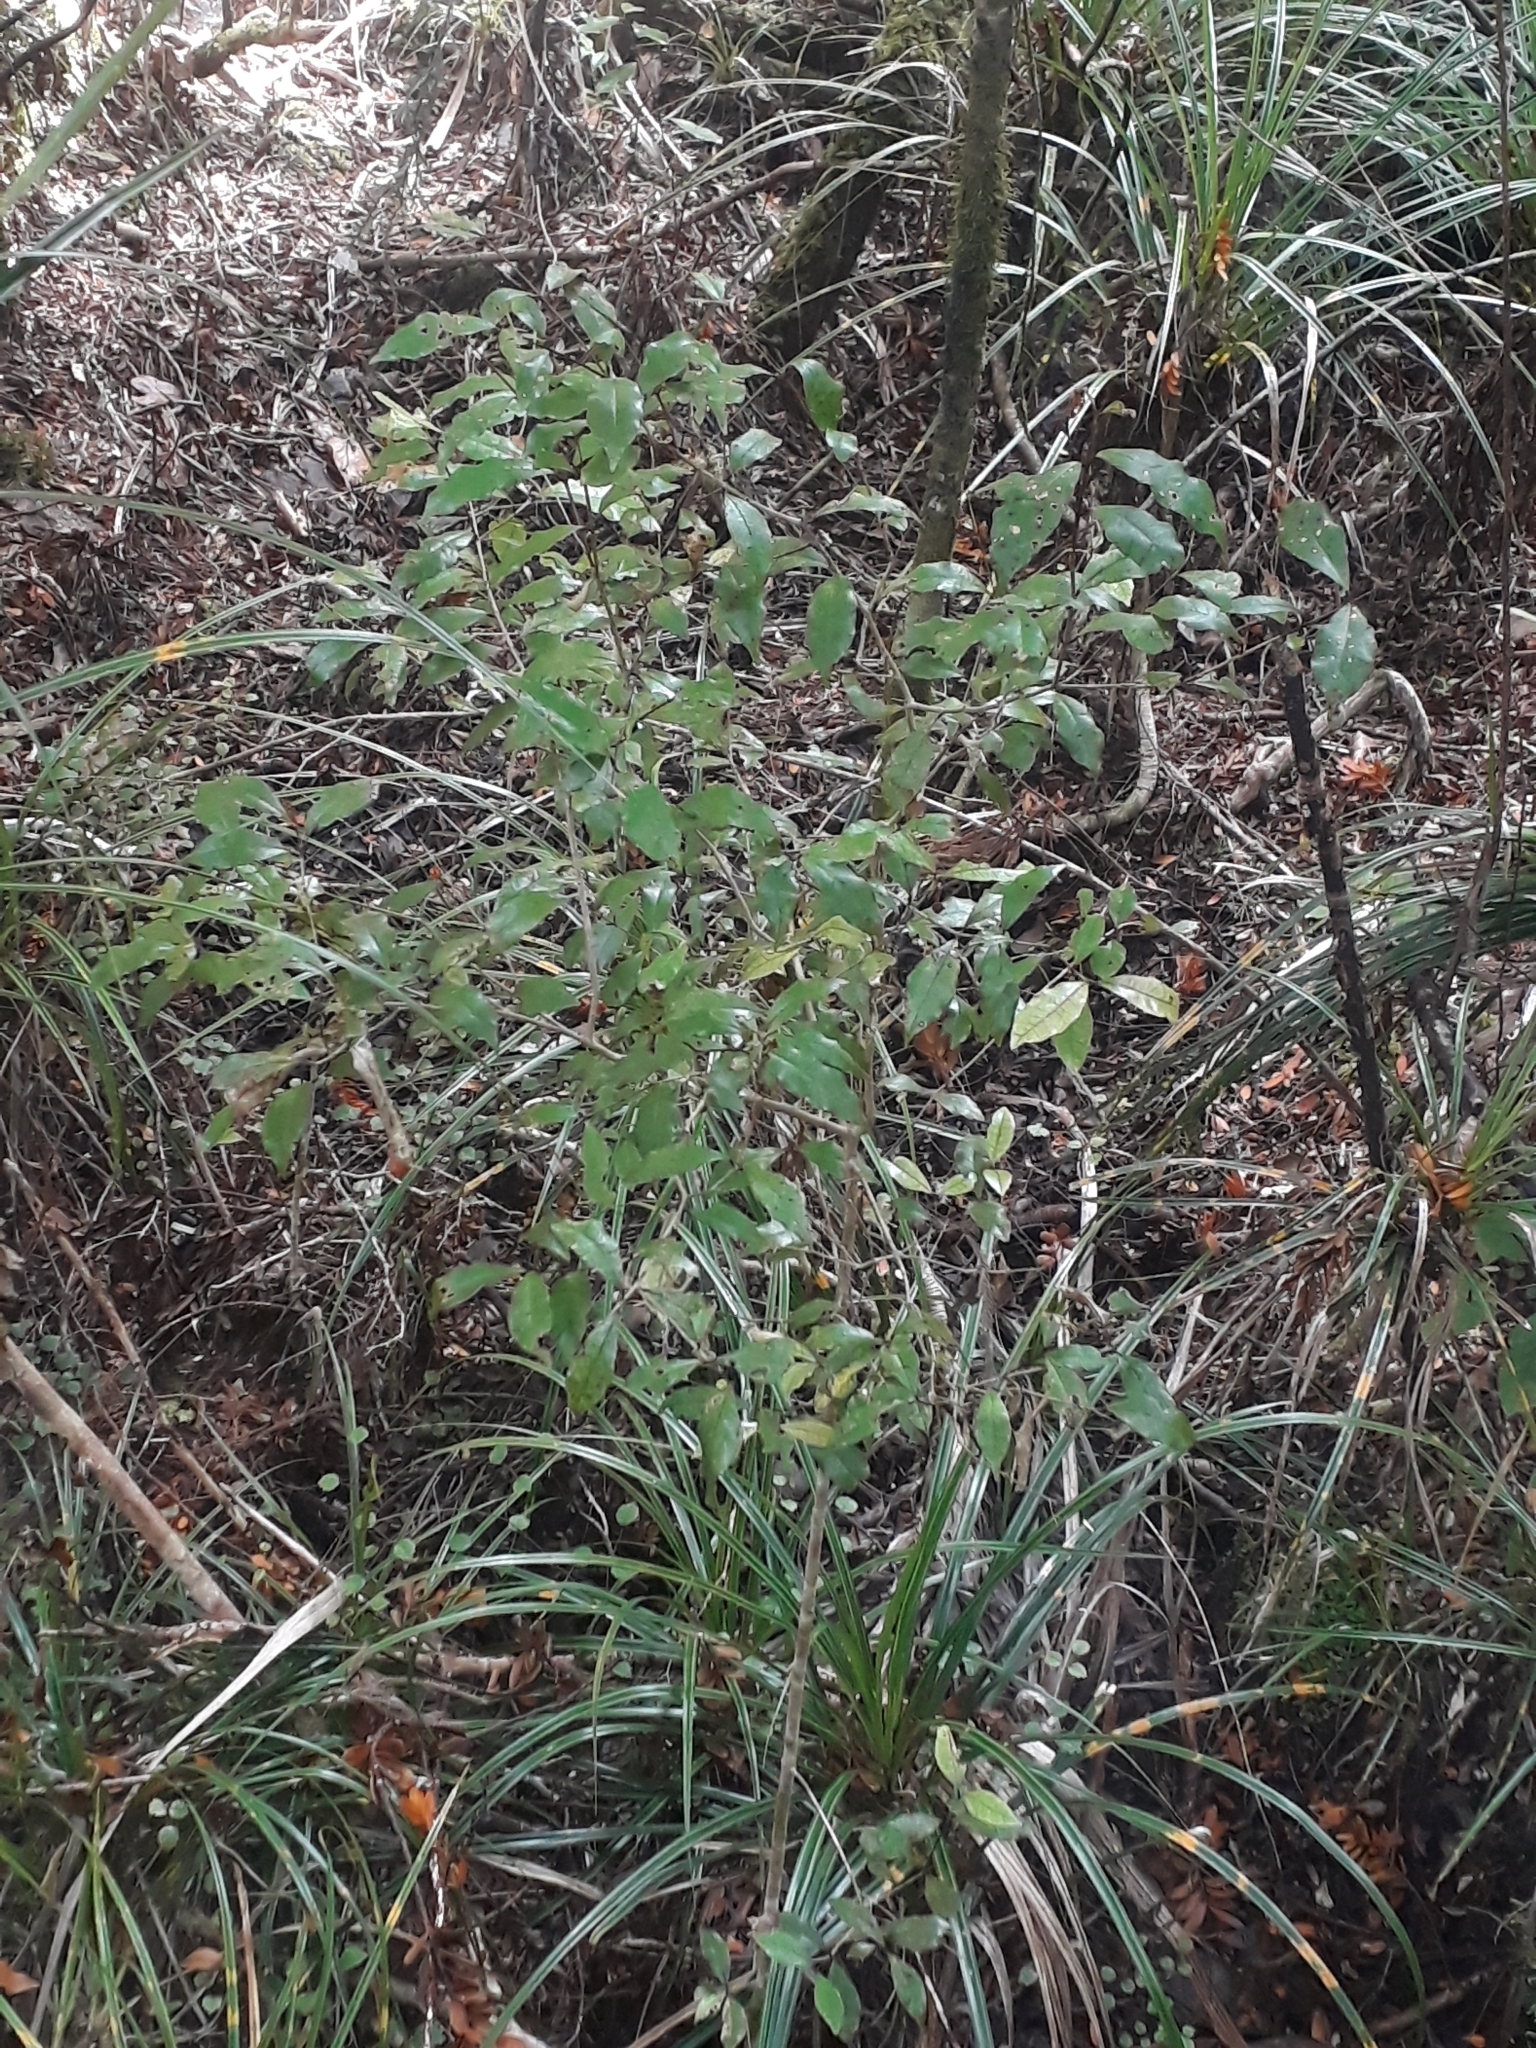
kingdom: Plantae
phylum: Tracheophyta
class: Magnoliopsida
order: Myrtales
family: Myrtaceae
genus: Syzygium
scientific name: Syzygium maire
